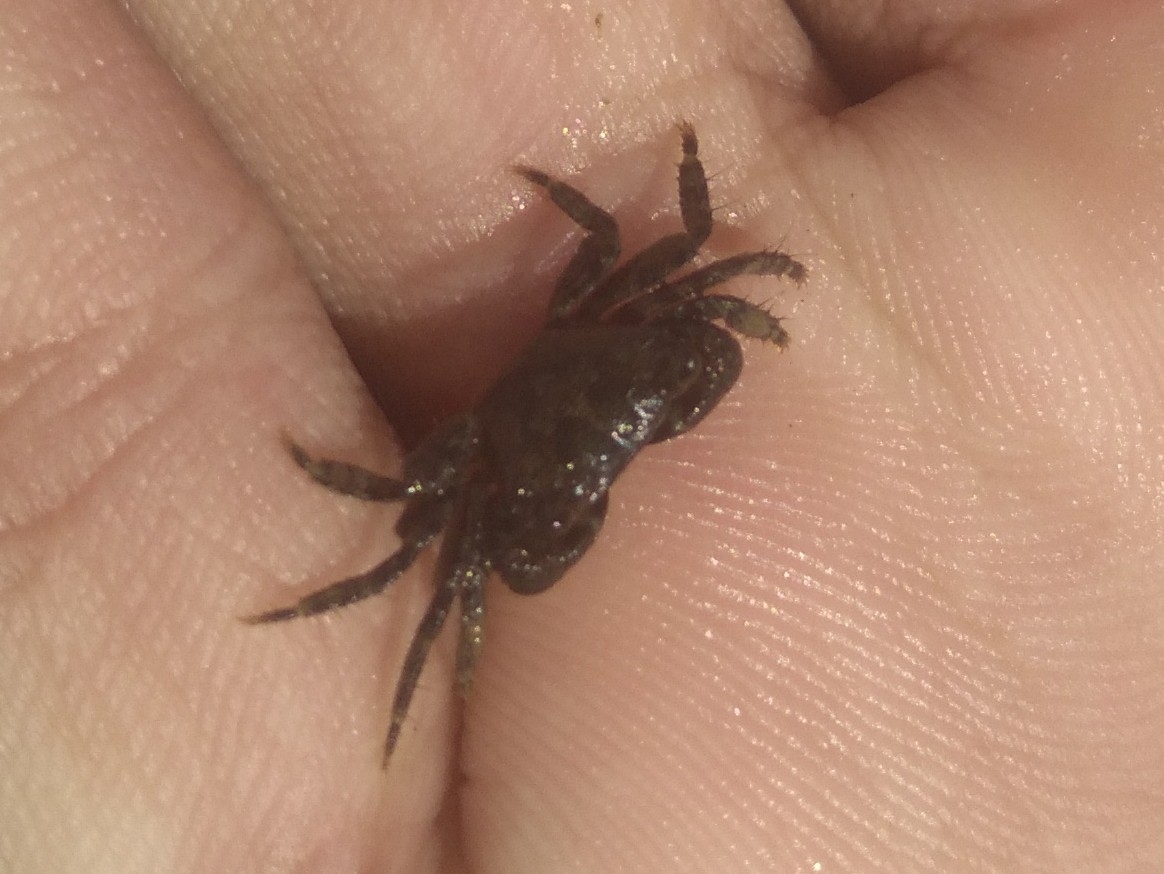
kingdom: Animalia
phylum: Arthropoda
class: Malacostraca
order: Decapoda
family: Grapsidae
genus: Pachygrapsus
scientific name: Pachygrapsus transversus
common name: Mottled shore crab
